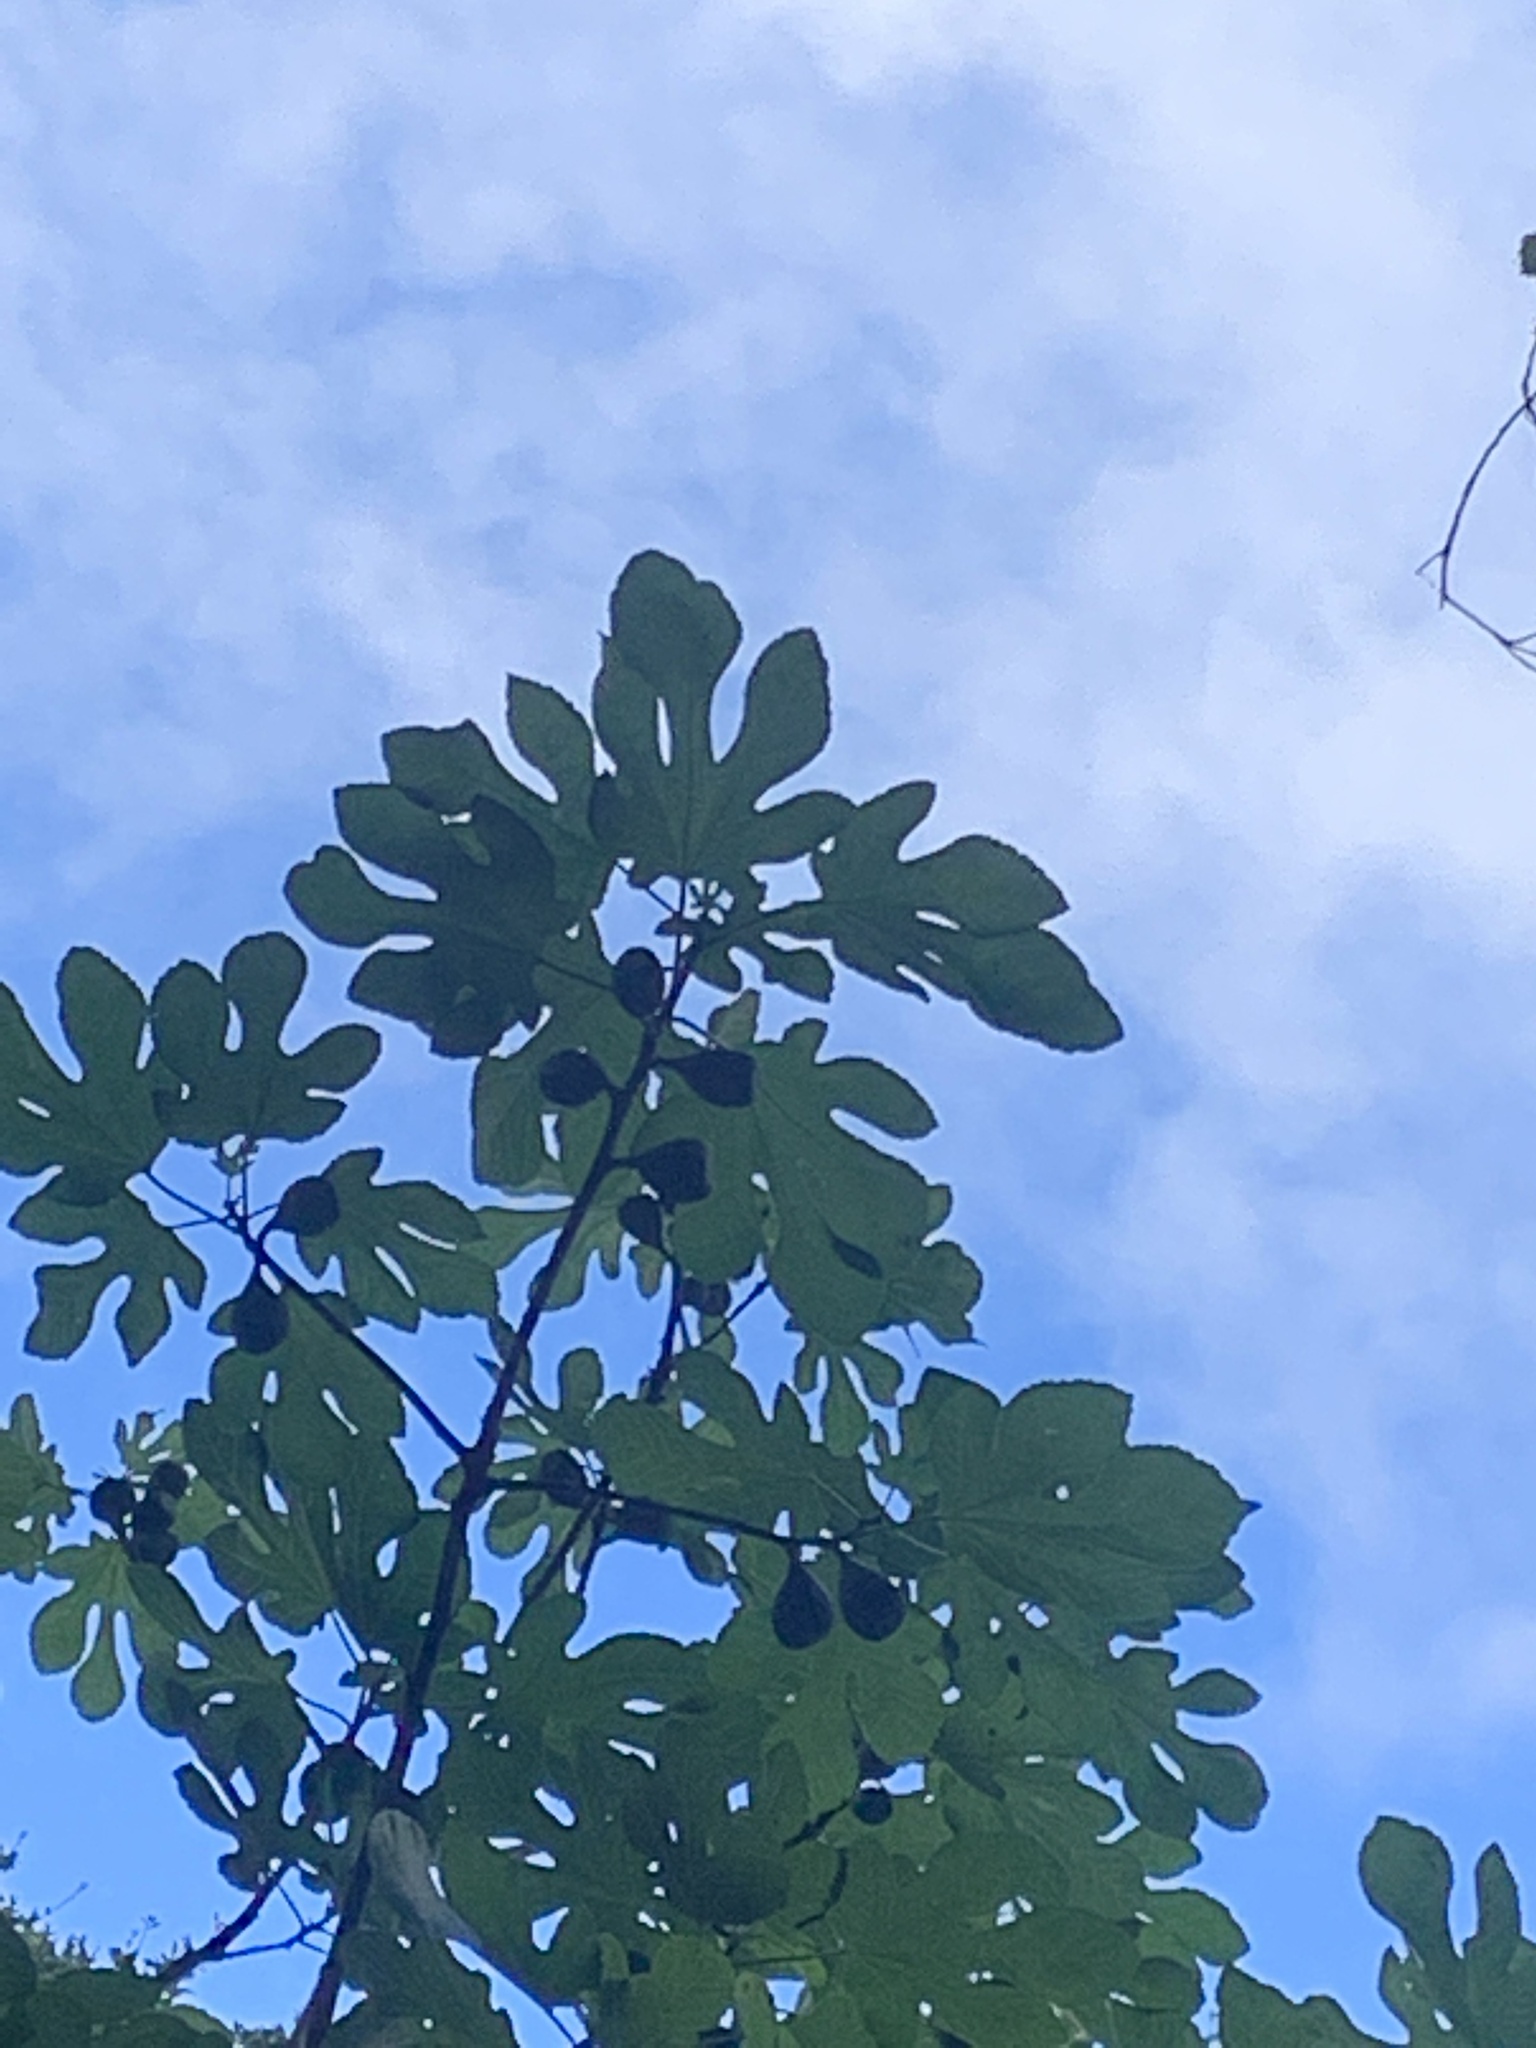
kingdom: Plantae
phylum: Tracheophyta
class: Magnoliopsida
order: Rosales
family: Moraceae
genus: Ficus
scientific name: Ficus carica
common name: Fig
